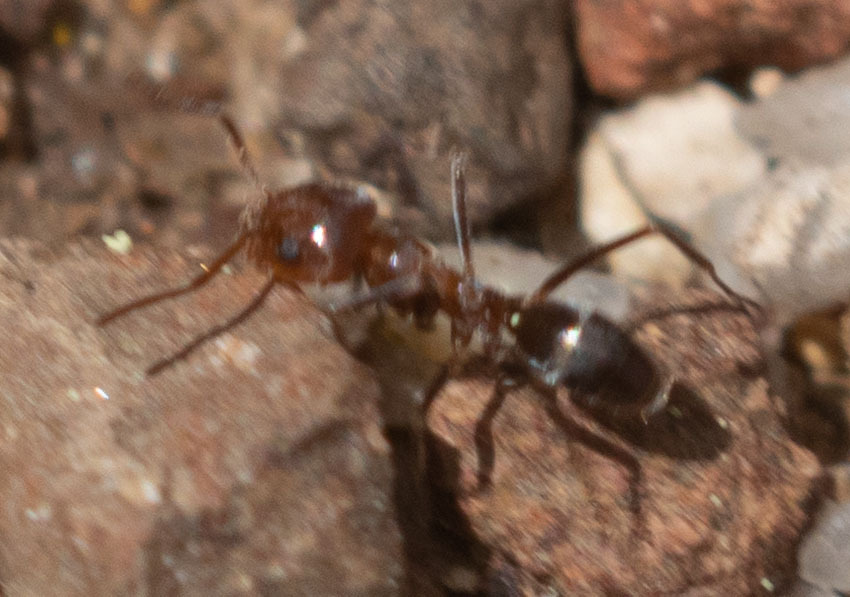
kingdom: Animalia
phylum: Arthropoda
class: Insecta
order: Hymenoptera
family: Formicidae
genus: Dorymyrmex
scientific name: Dorymyrmex bicolor
